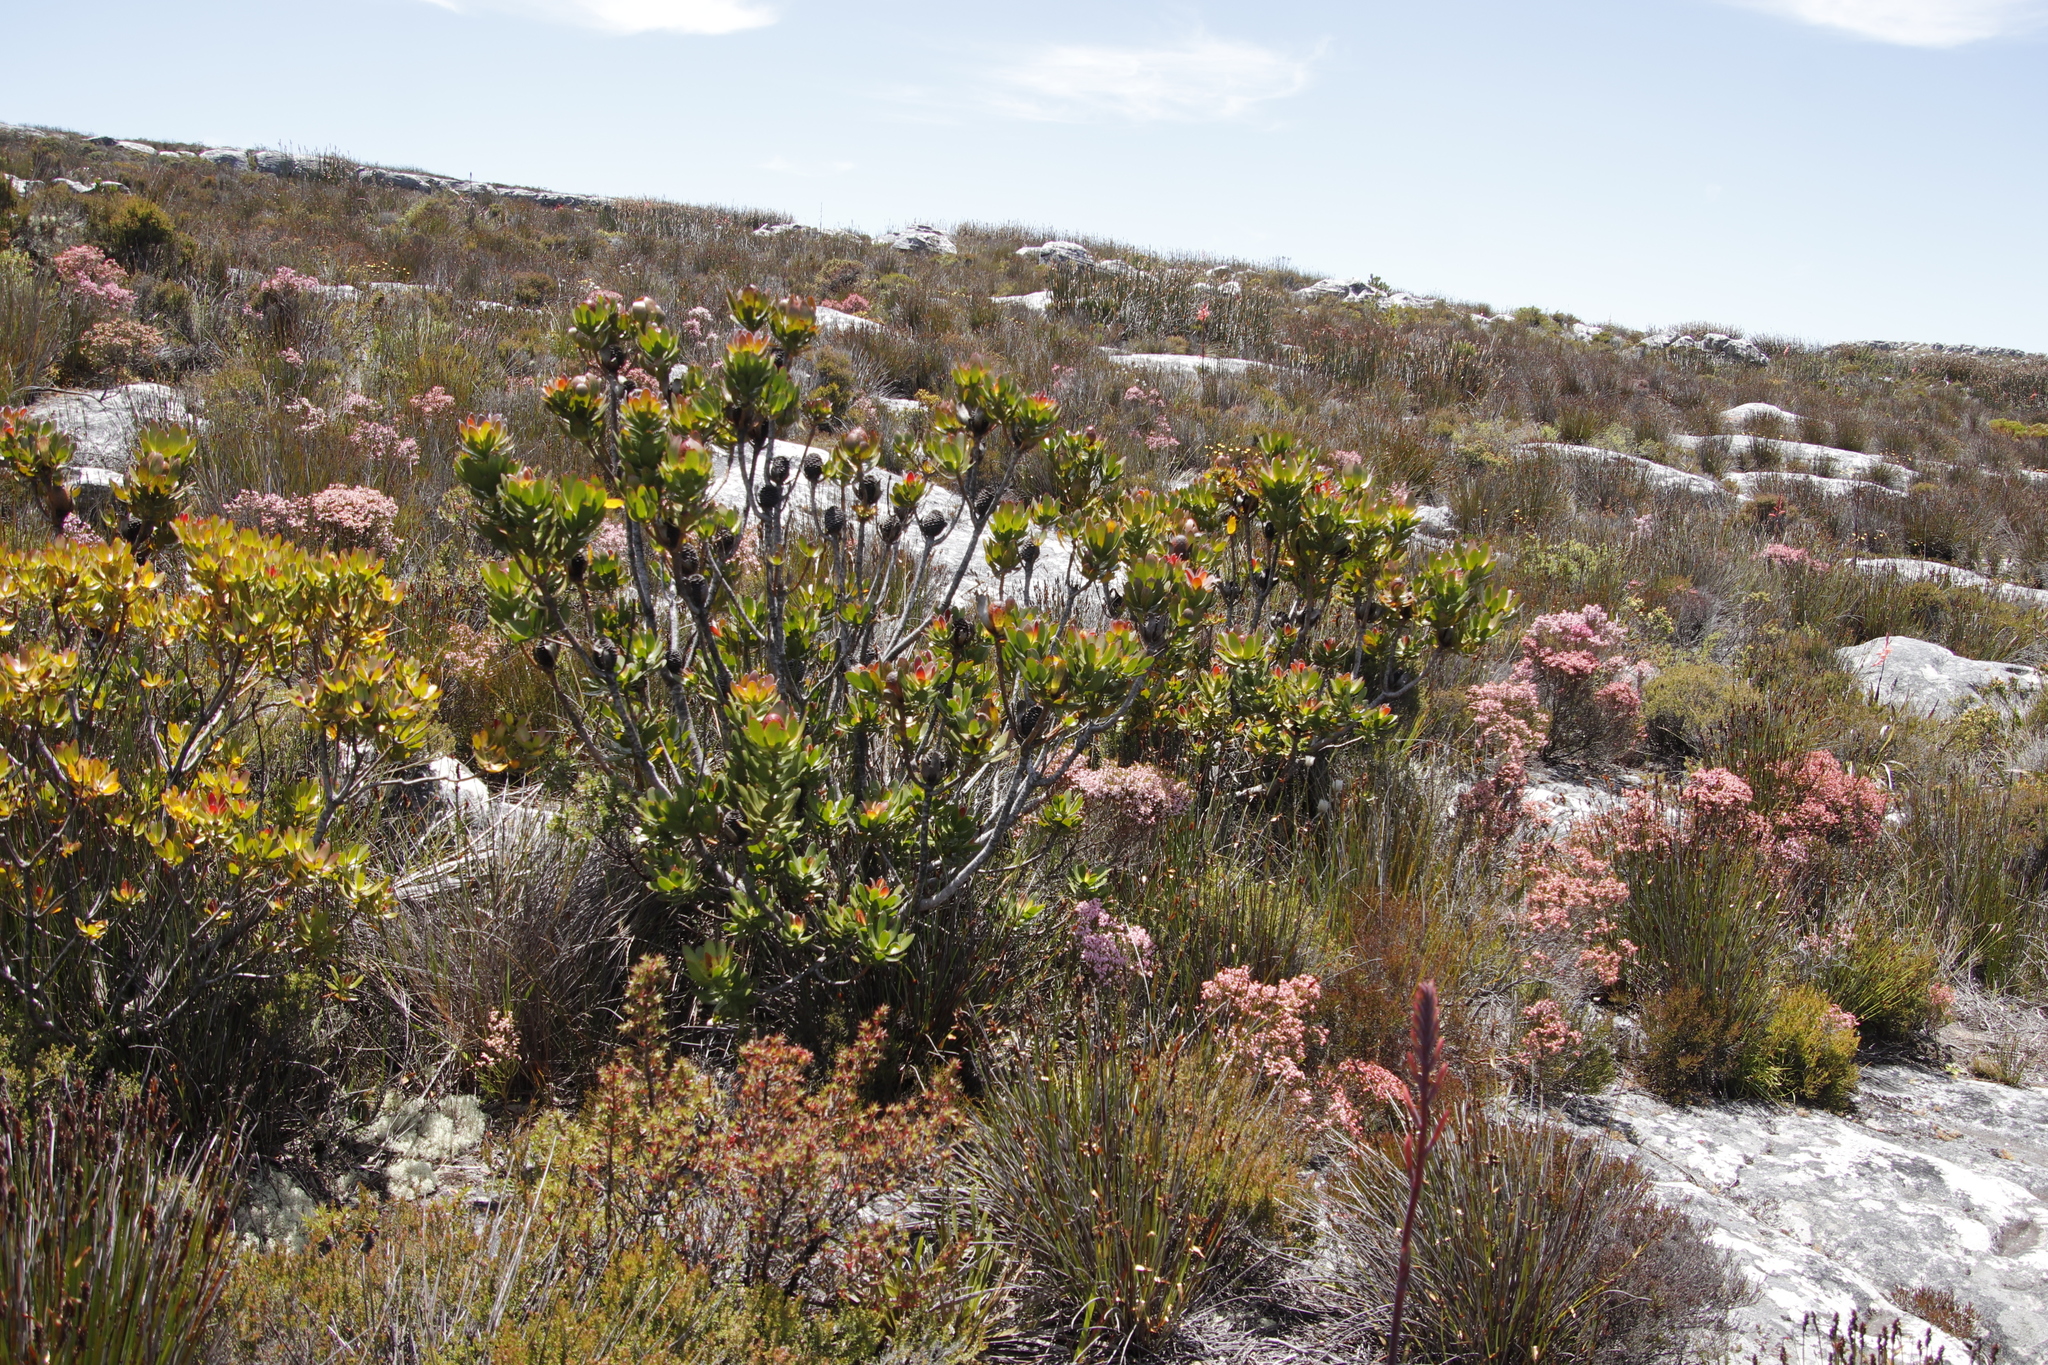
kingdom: Plantae
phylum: Tracheophyta
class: Magnoliopsida
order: Proteales
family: Proteaceae
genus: Leucadendron
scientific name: Leucadendron strobilinum
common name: Mountain rose
